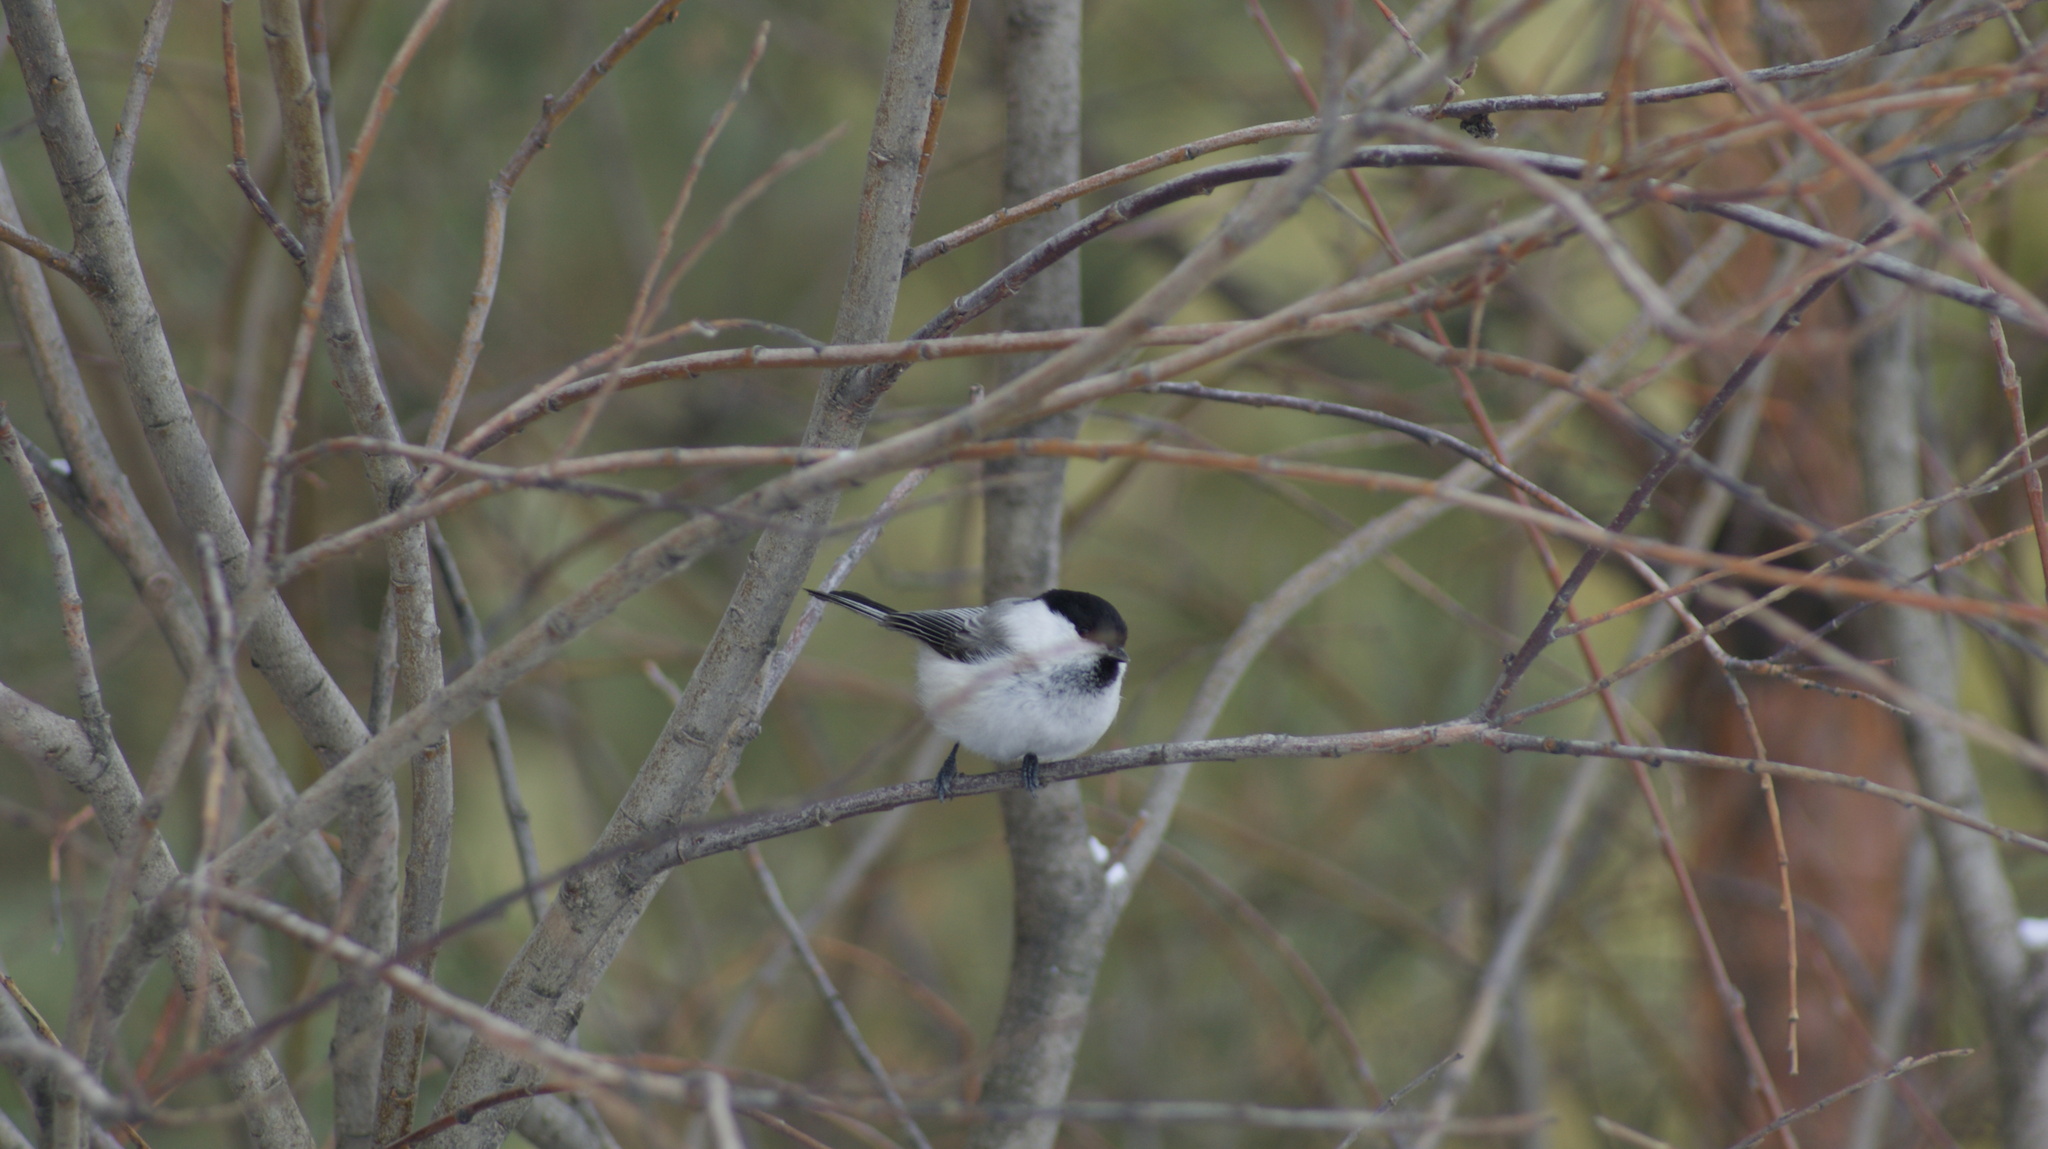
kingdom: Animalia
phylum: Chordata
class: Aves
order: Passeriformes
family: Paridae
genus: Poecile
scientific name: Poecile montanus
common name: Willow tit
